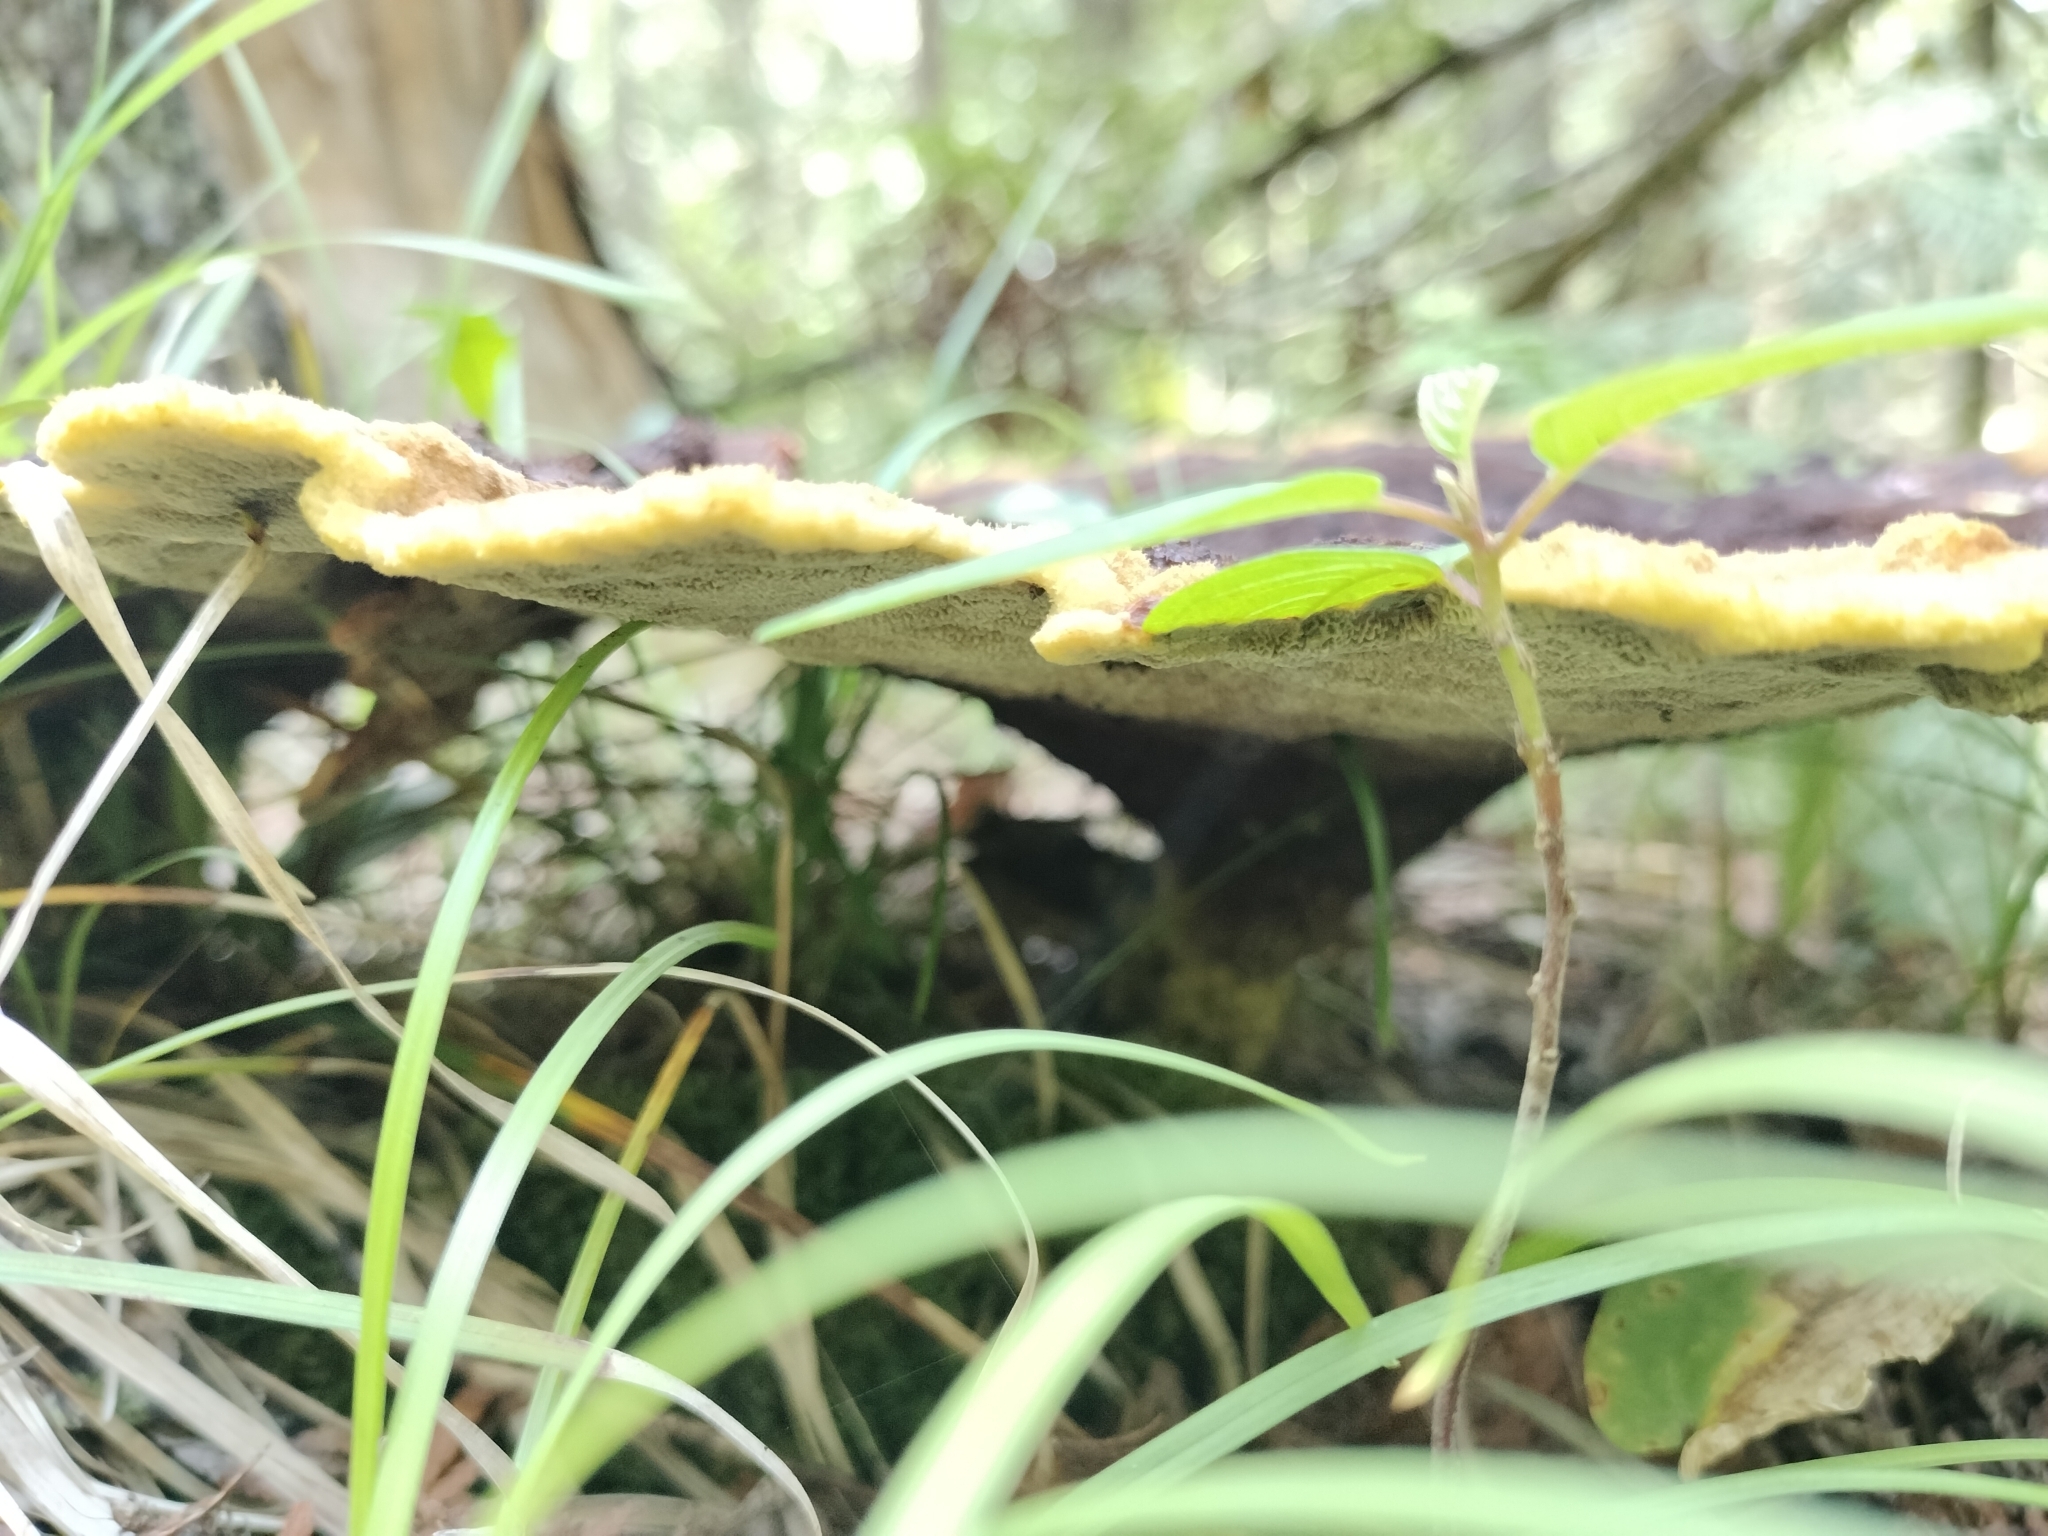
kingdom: Fungi
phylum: Basidiomycota
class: Agaricomycetes
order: Polyporales
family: Laetiporaceae
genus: Phaeolus
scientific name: Phaeolus schweinitzii
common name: Dyer's mazegill
